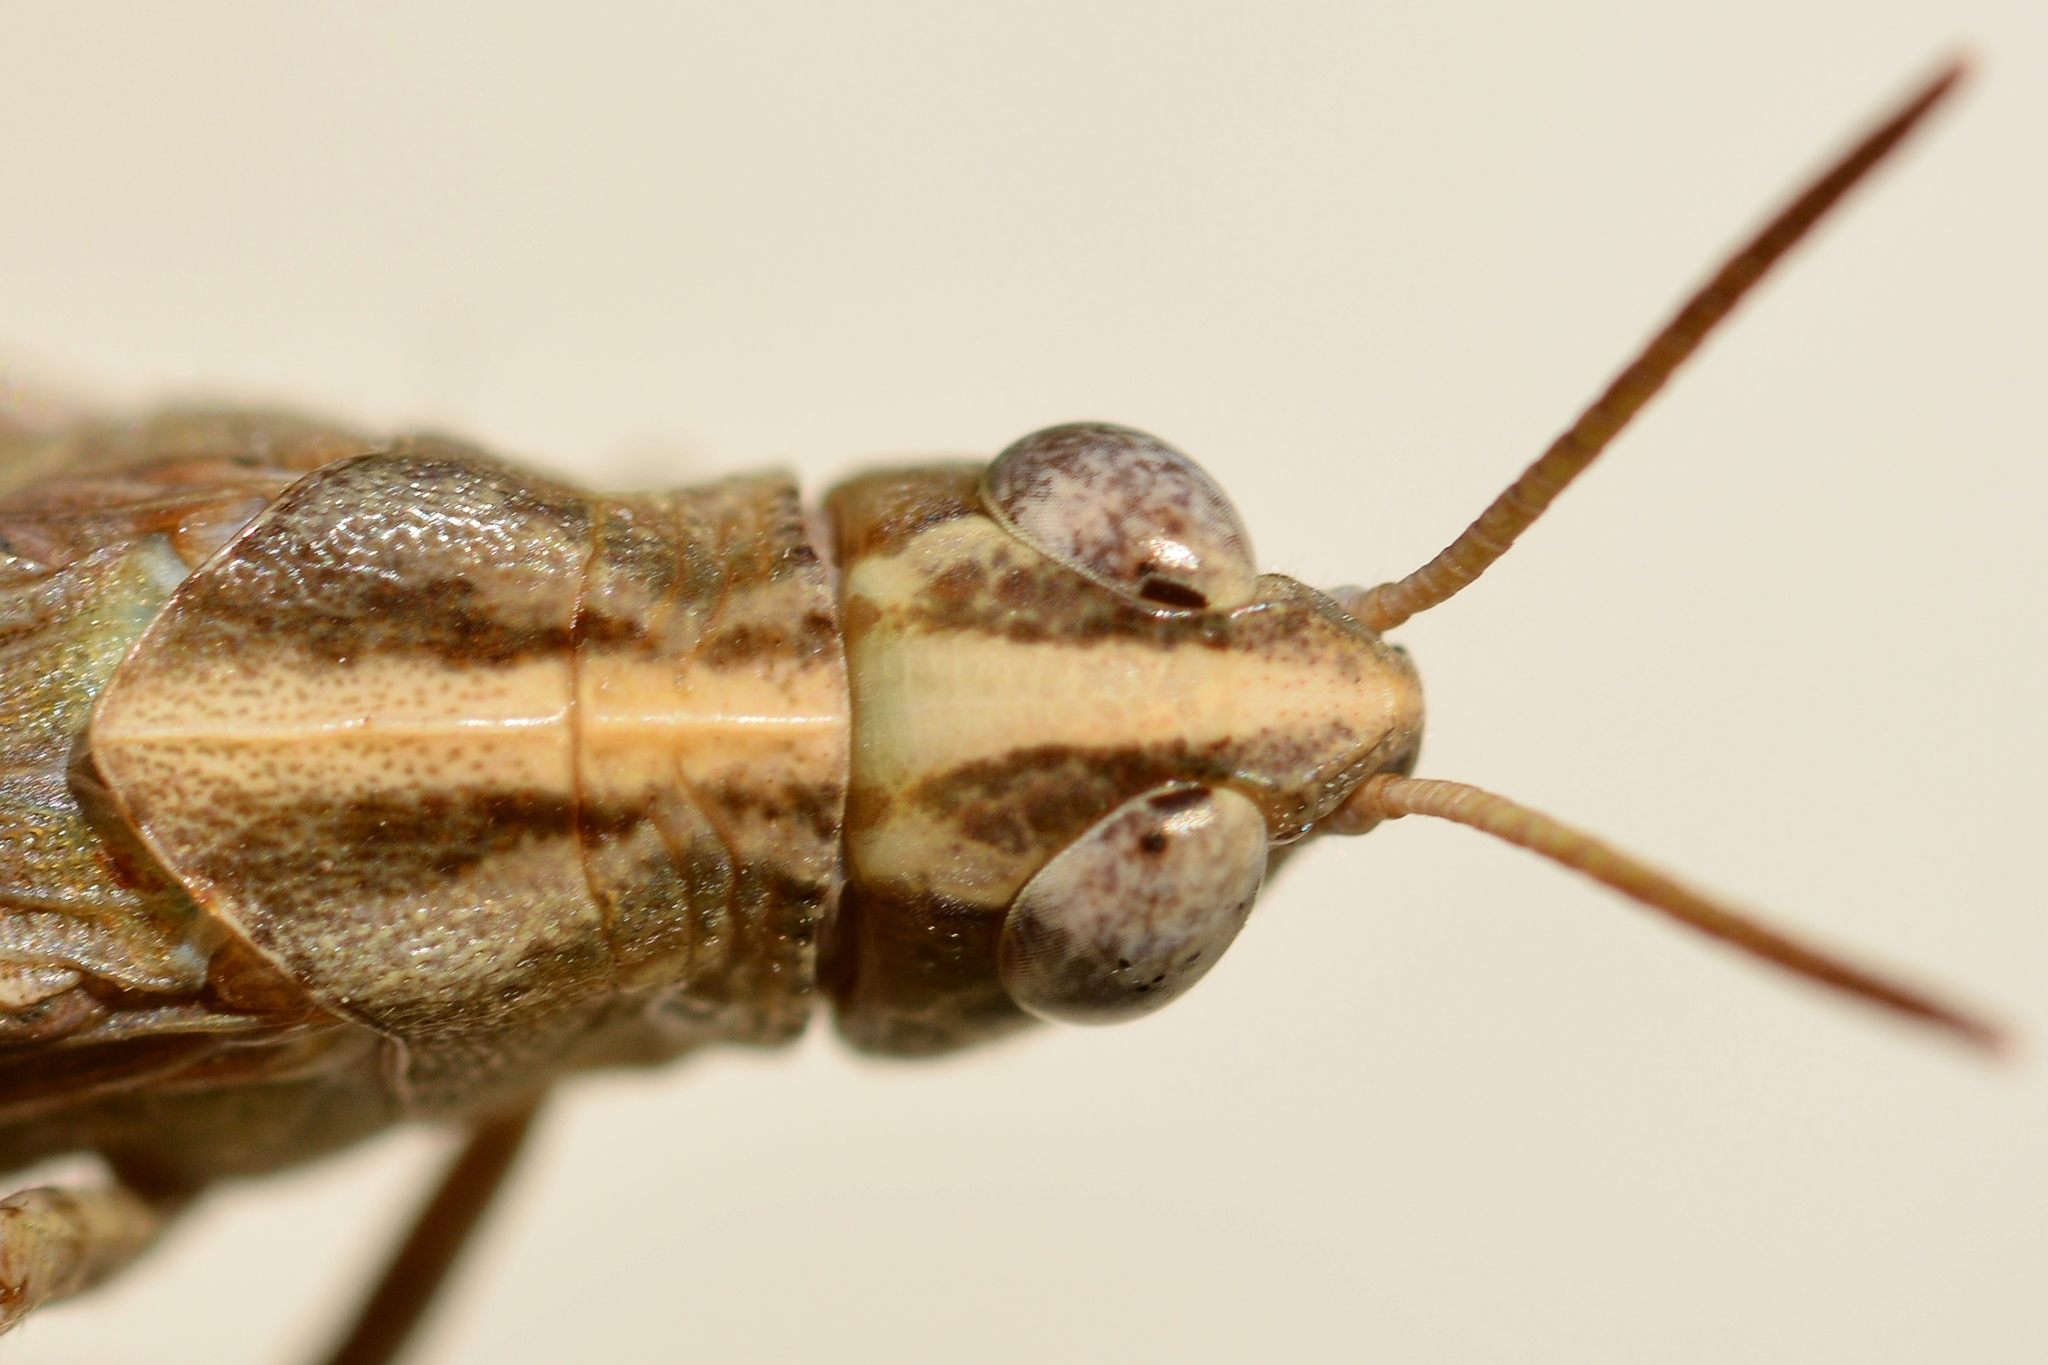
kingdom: Animalia
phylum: Arthropoda
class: Insecta
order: Orthoptera
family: Acrididae
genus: Aiolopus
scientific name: Aiolopus strepens
